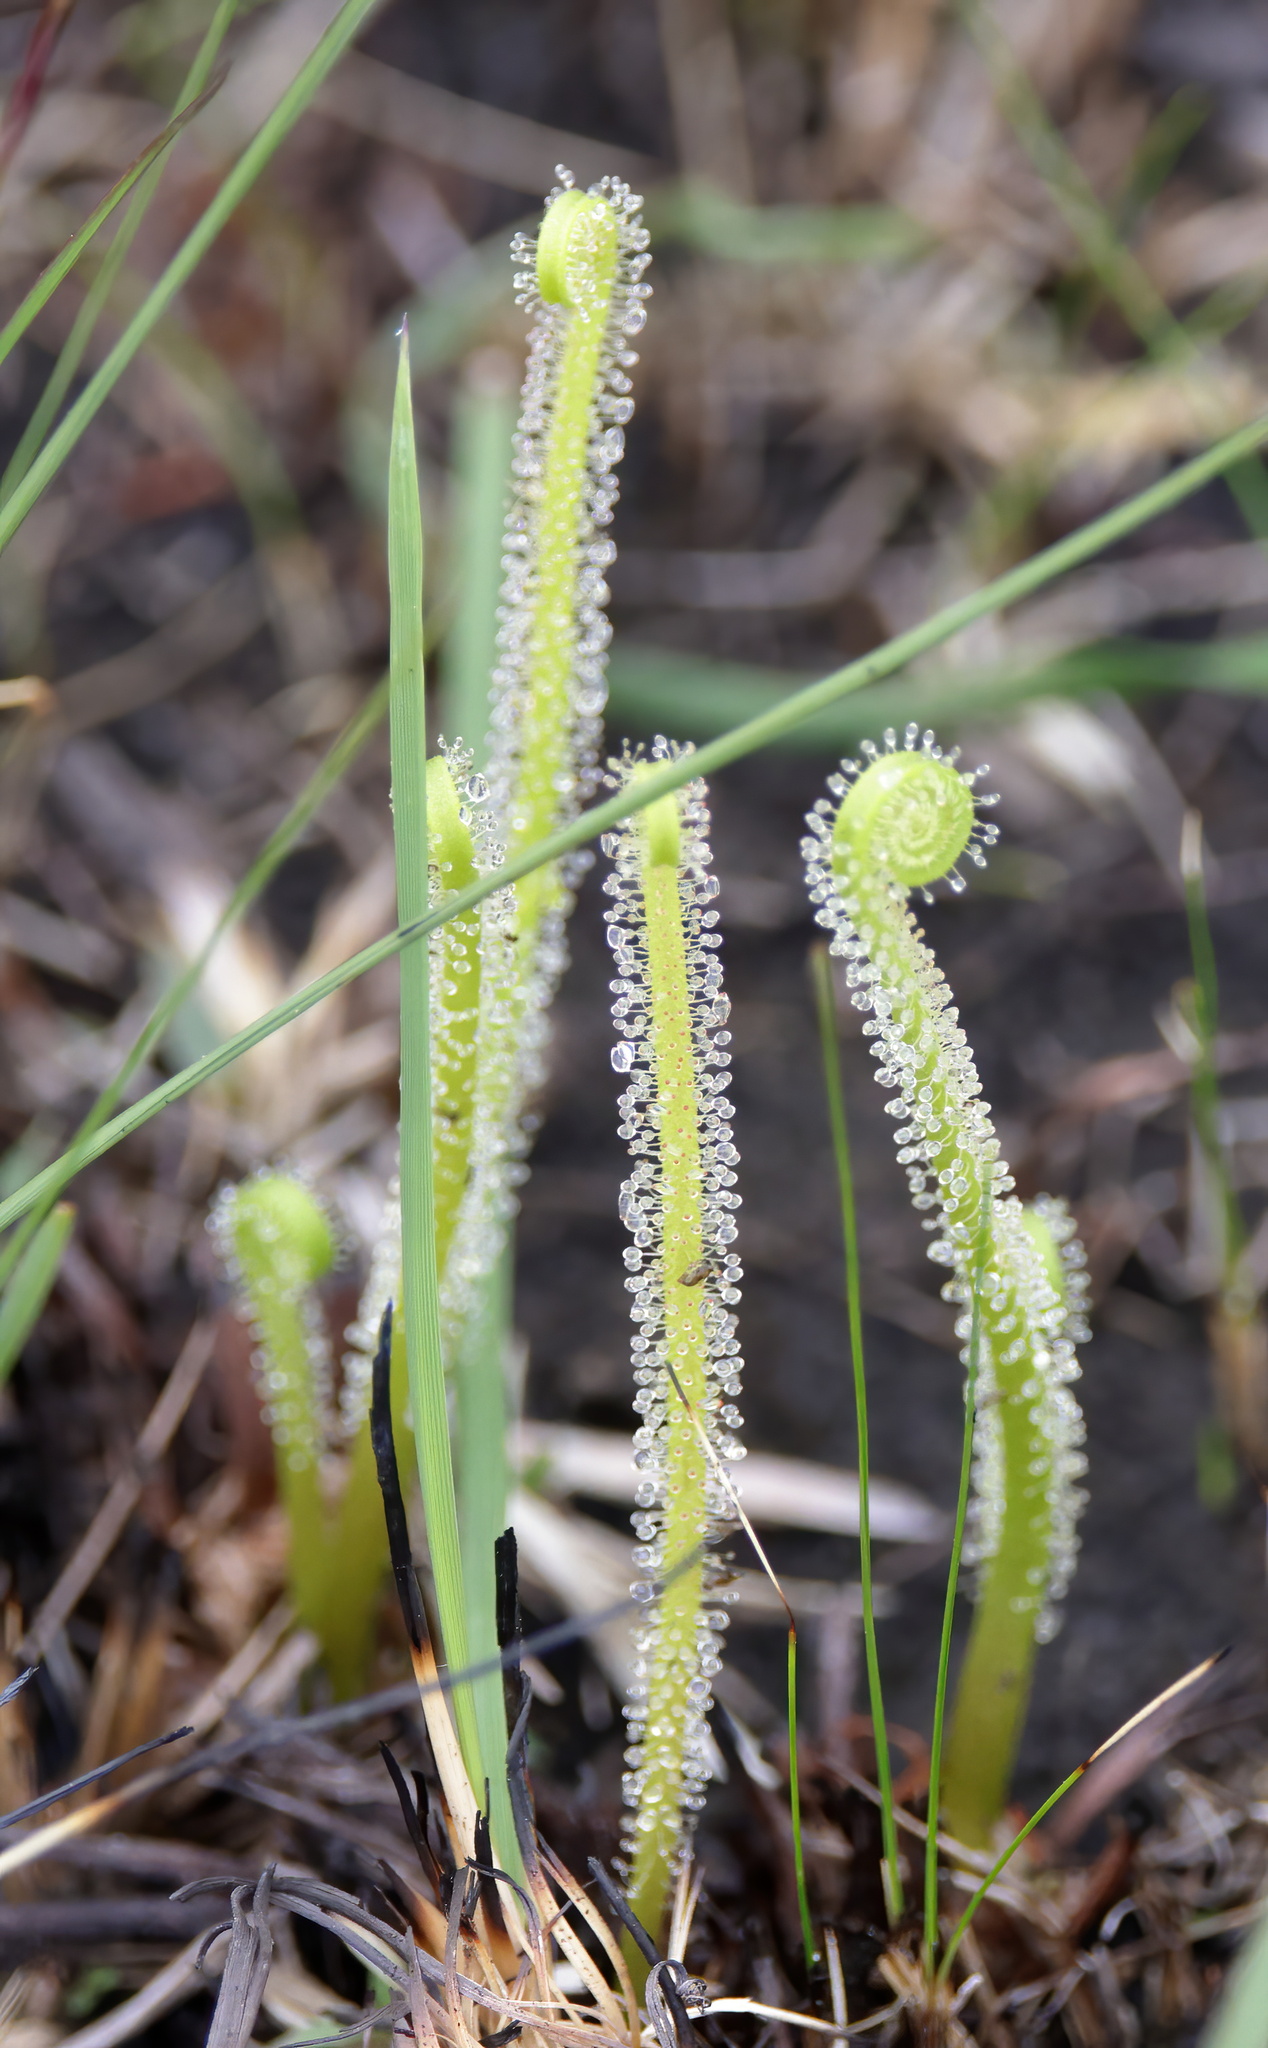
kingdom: Plantae
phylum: Tracheophyta
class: Magnoliopsida
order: Caryophyllales
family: Droseraceae
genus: Drosera
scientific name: Drosera filiformis
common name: Dew-thread
